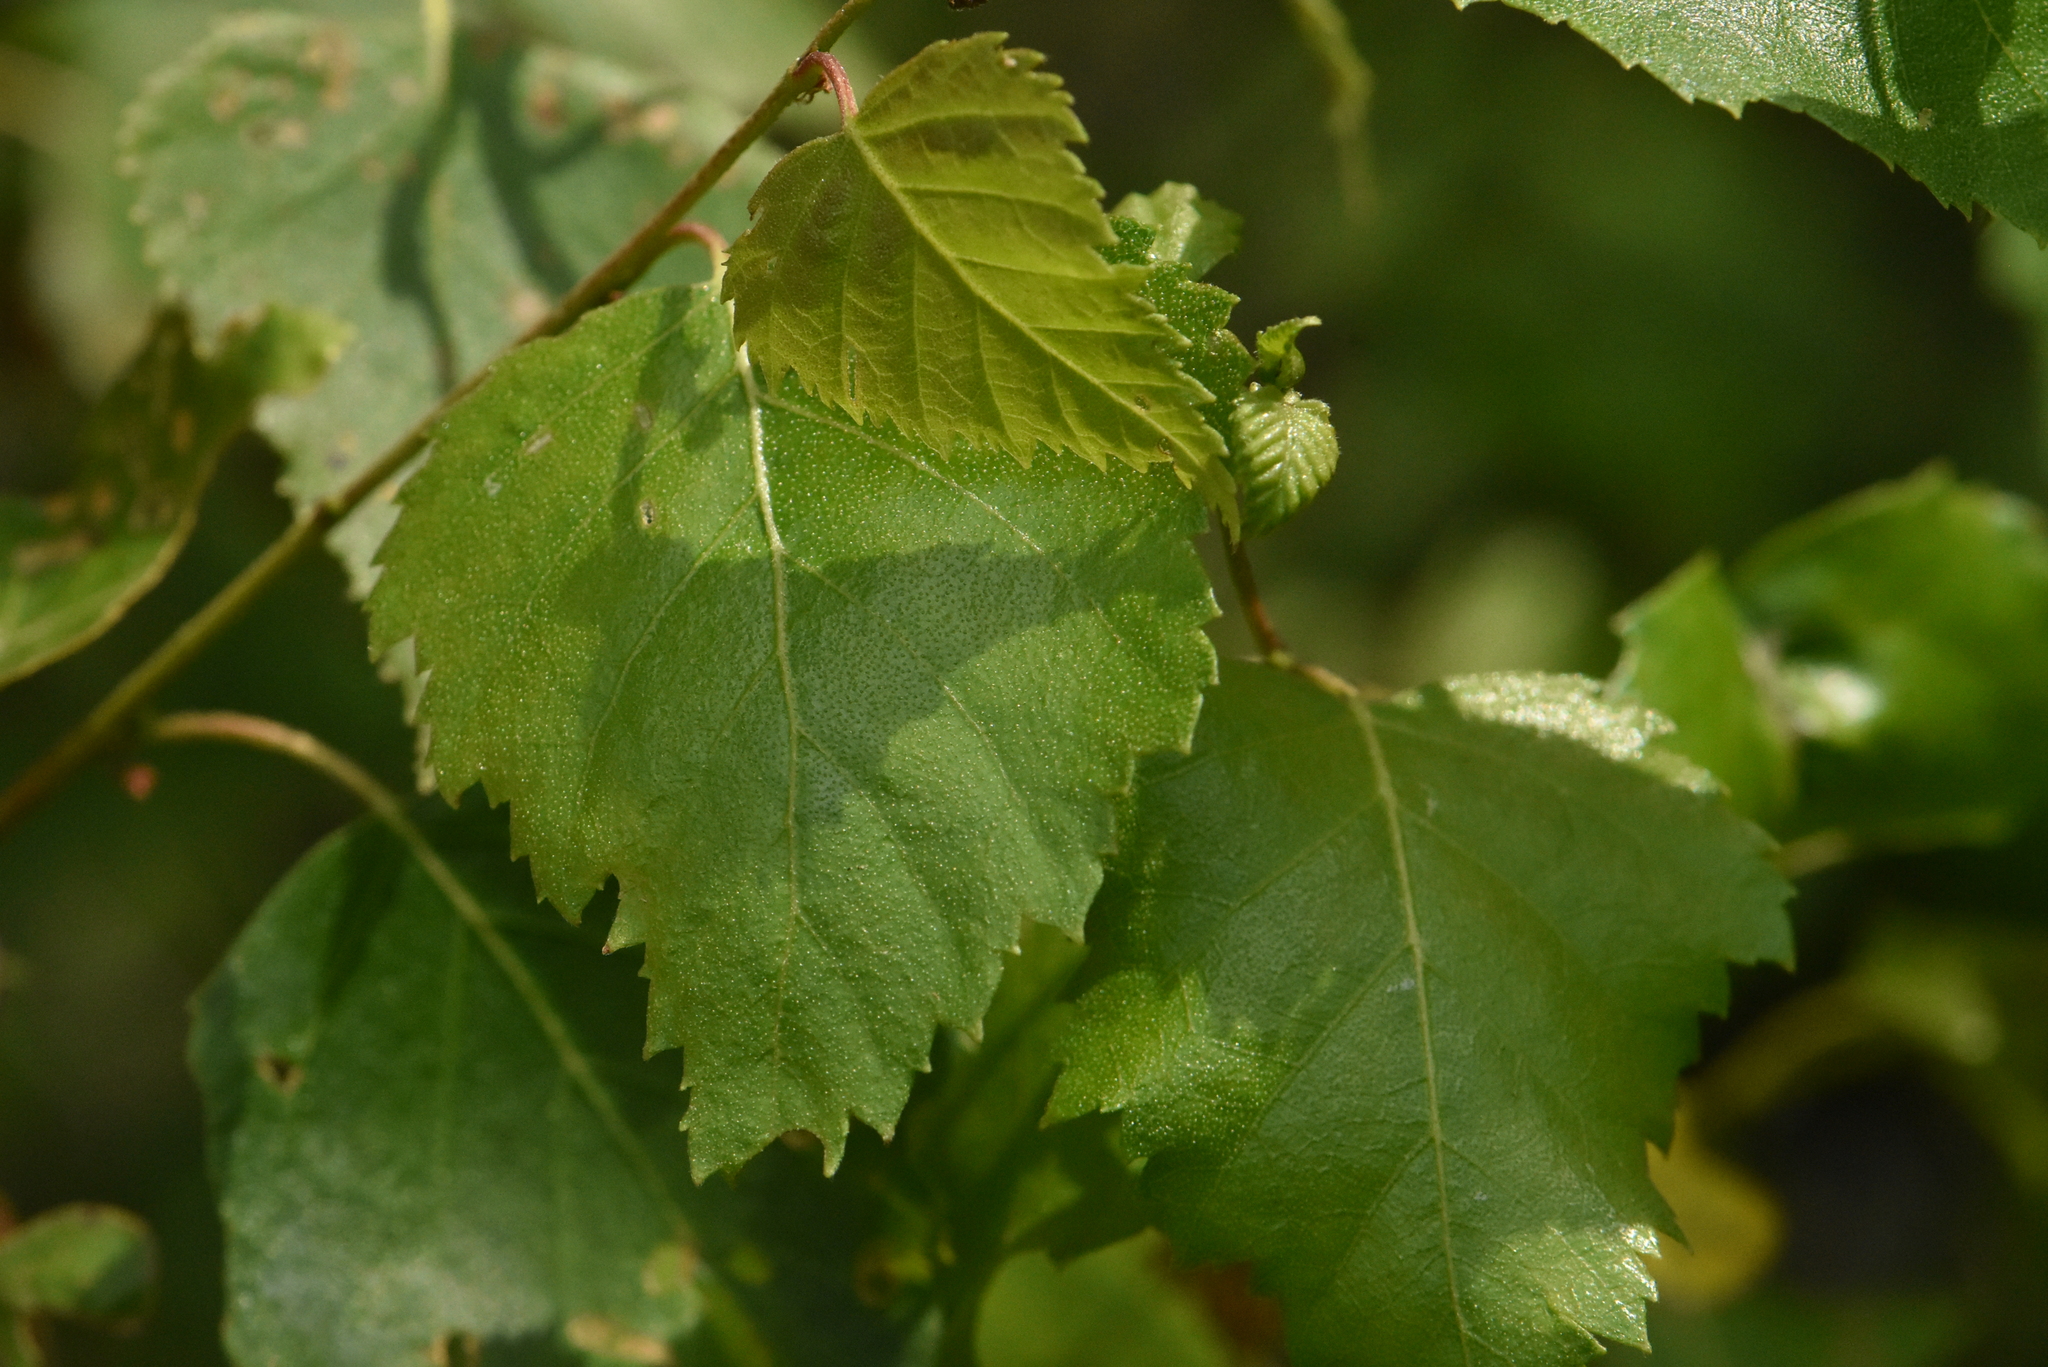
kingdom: Plantae
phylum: Tracheophyta
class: Magnoliopsida
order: Fagales
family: Betulaceae
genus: Betula
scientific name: Betula pendula
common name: Silver birch
